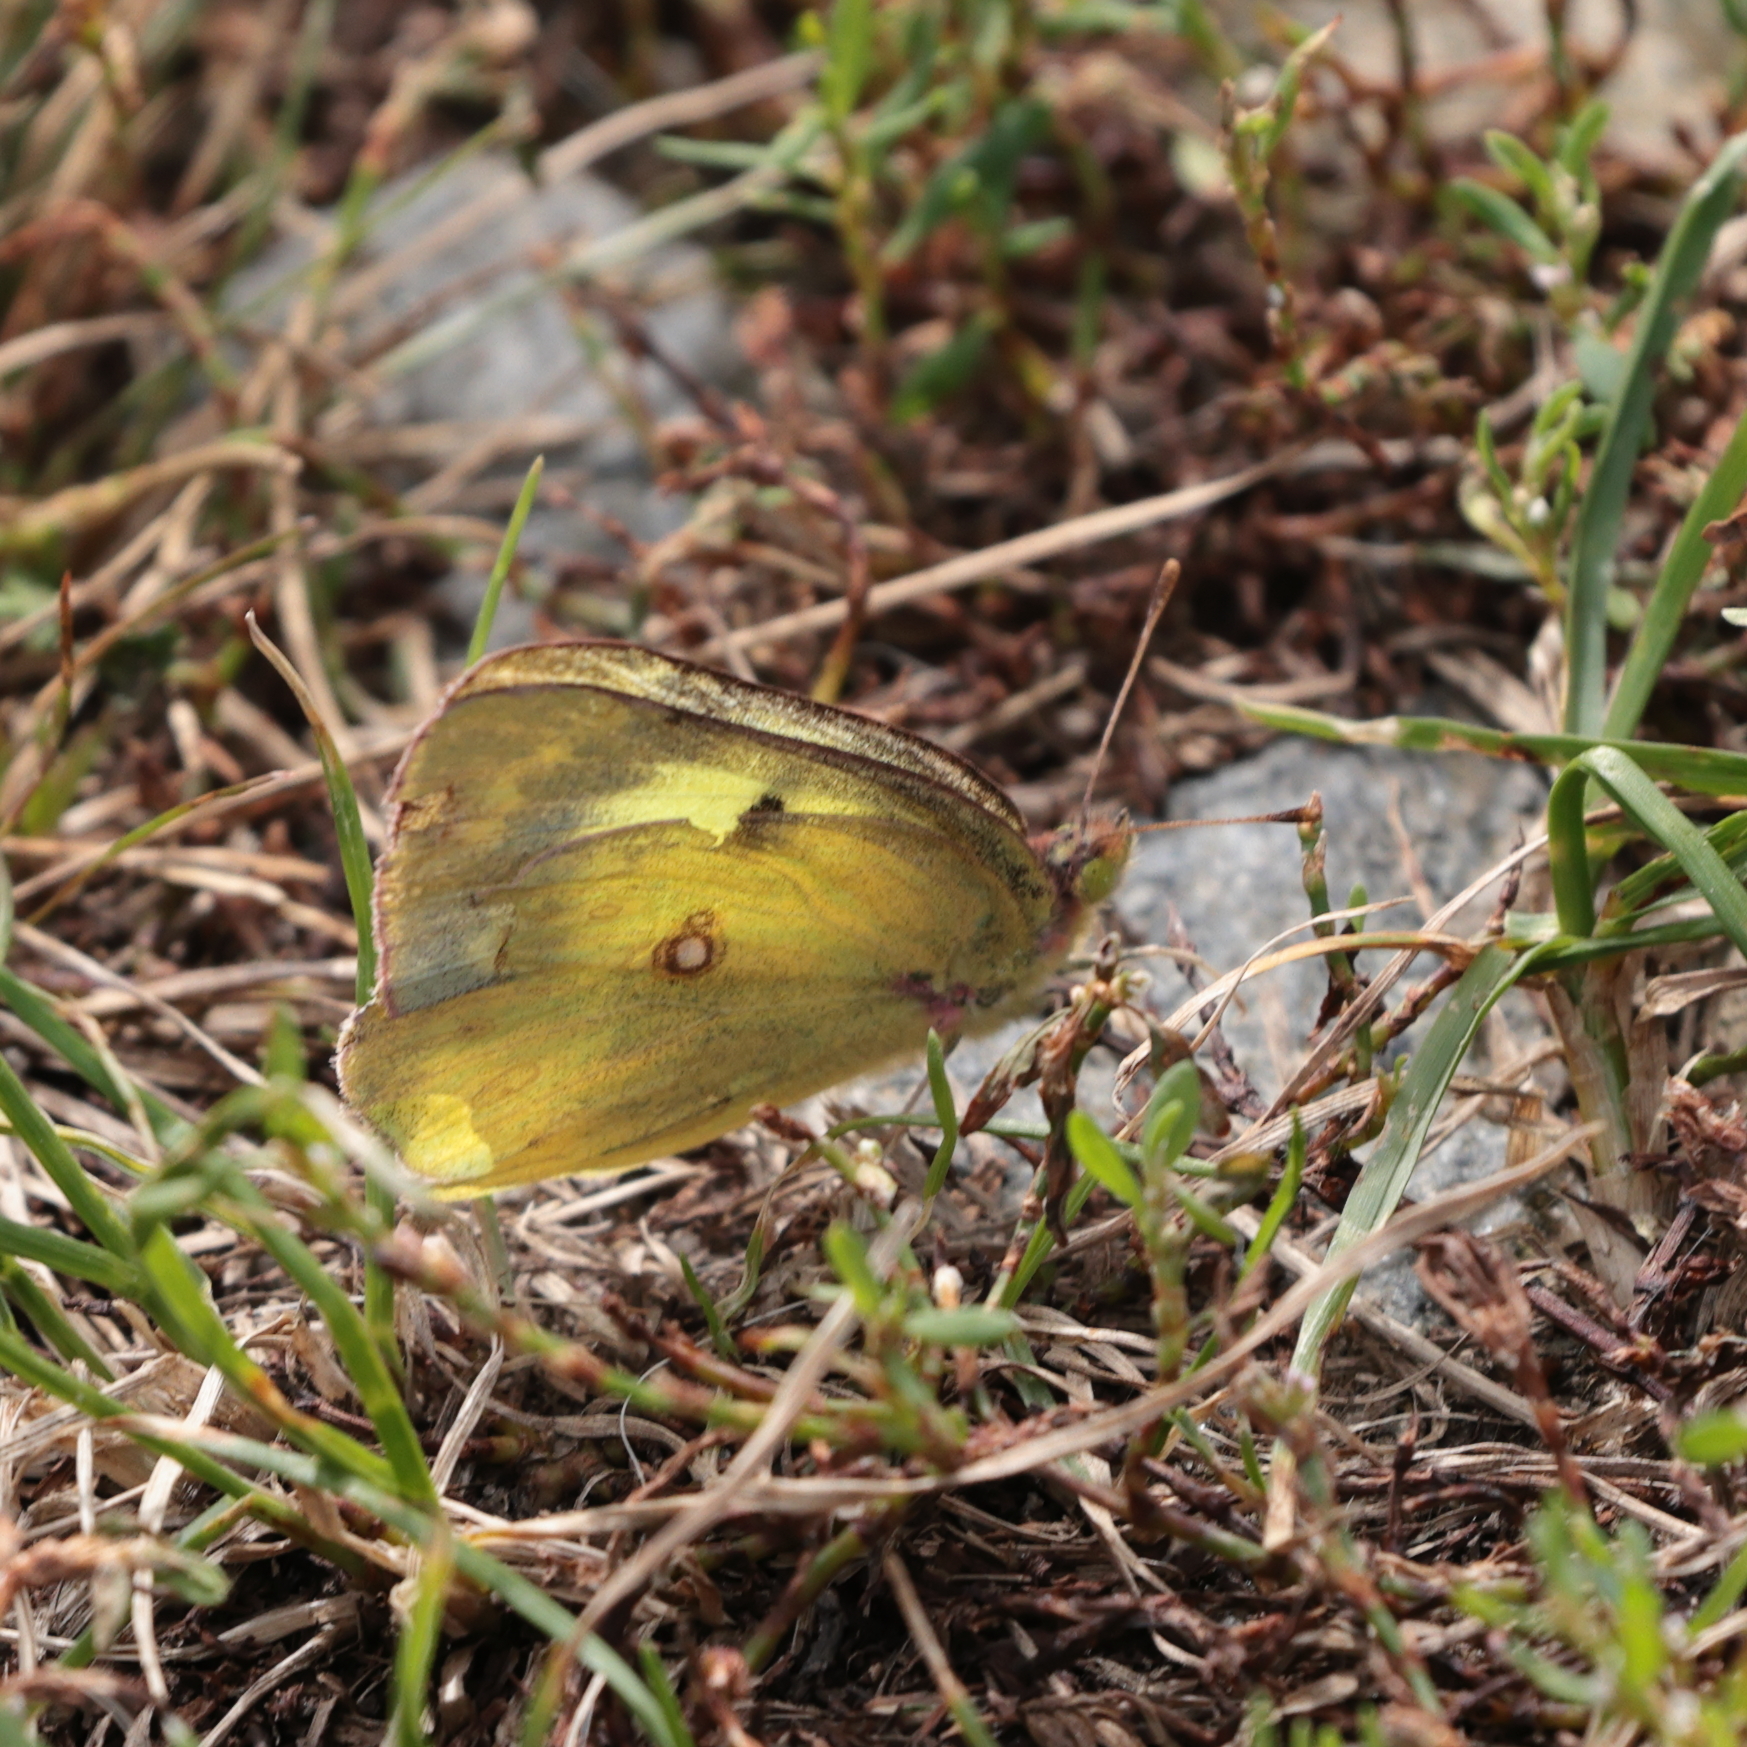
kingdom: Animalia
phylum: Arthropoda
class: Insecta
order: Lepidoptera
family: Pieridae
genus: Colias
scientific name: Colias philodice
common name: Clouded sulphur
